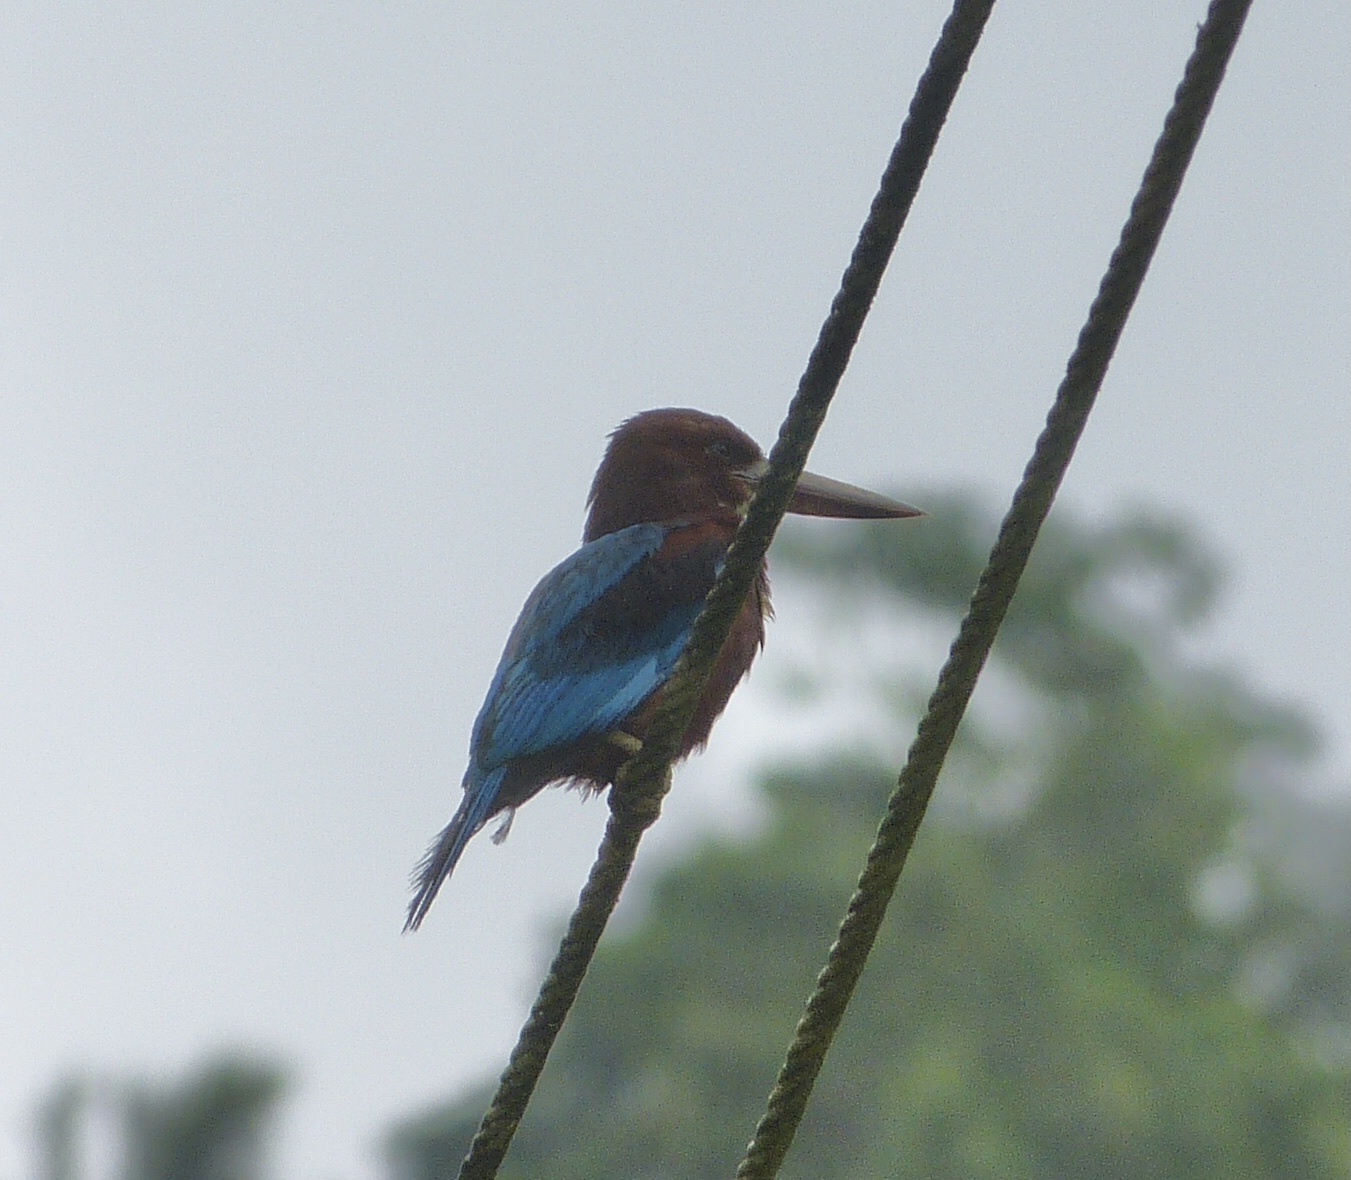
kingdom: Animalia
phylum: Chordata
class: Aves
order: Coraciiformes
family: Alcedinidae
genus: Halcyon
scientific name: Halcyon smyrnensis
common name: White-throated kingfisher
